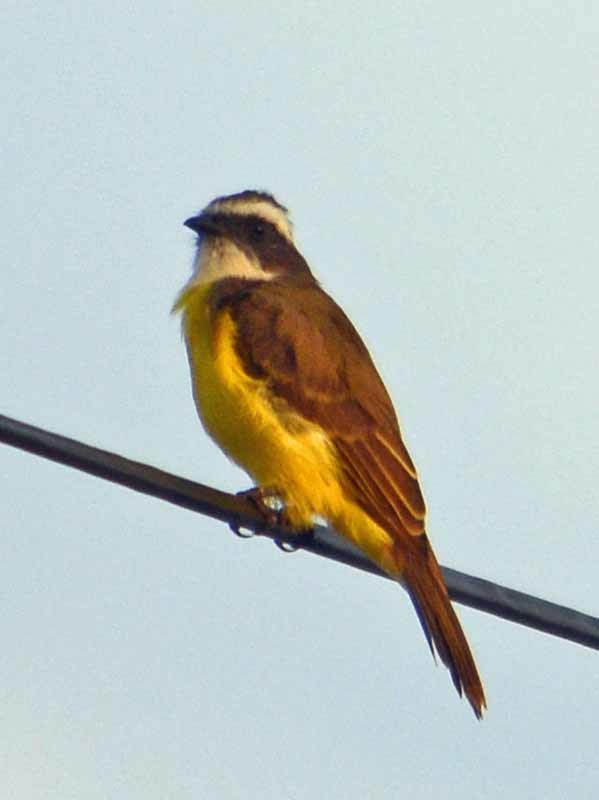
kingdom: Animalia
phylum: Chordata
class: Aves
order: Passeriformes
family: Tyrannidae
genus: Myiozetetes
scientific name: Myiozetetes similis
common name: Social flycatcher
